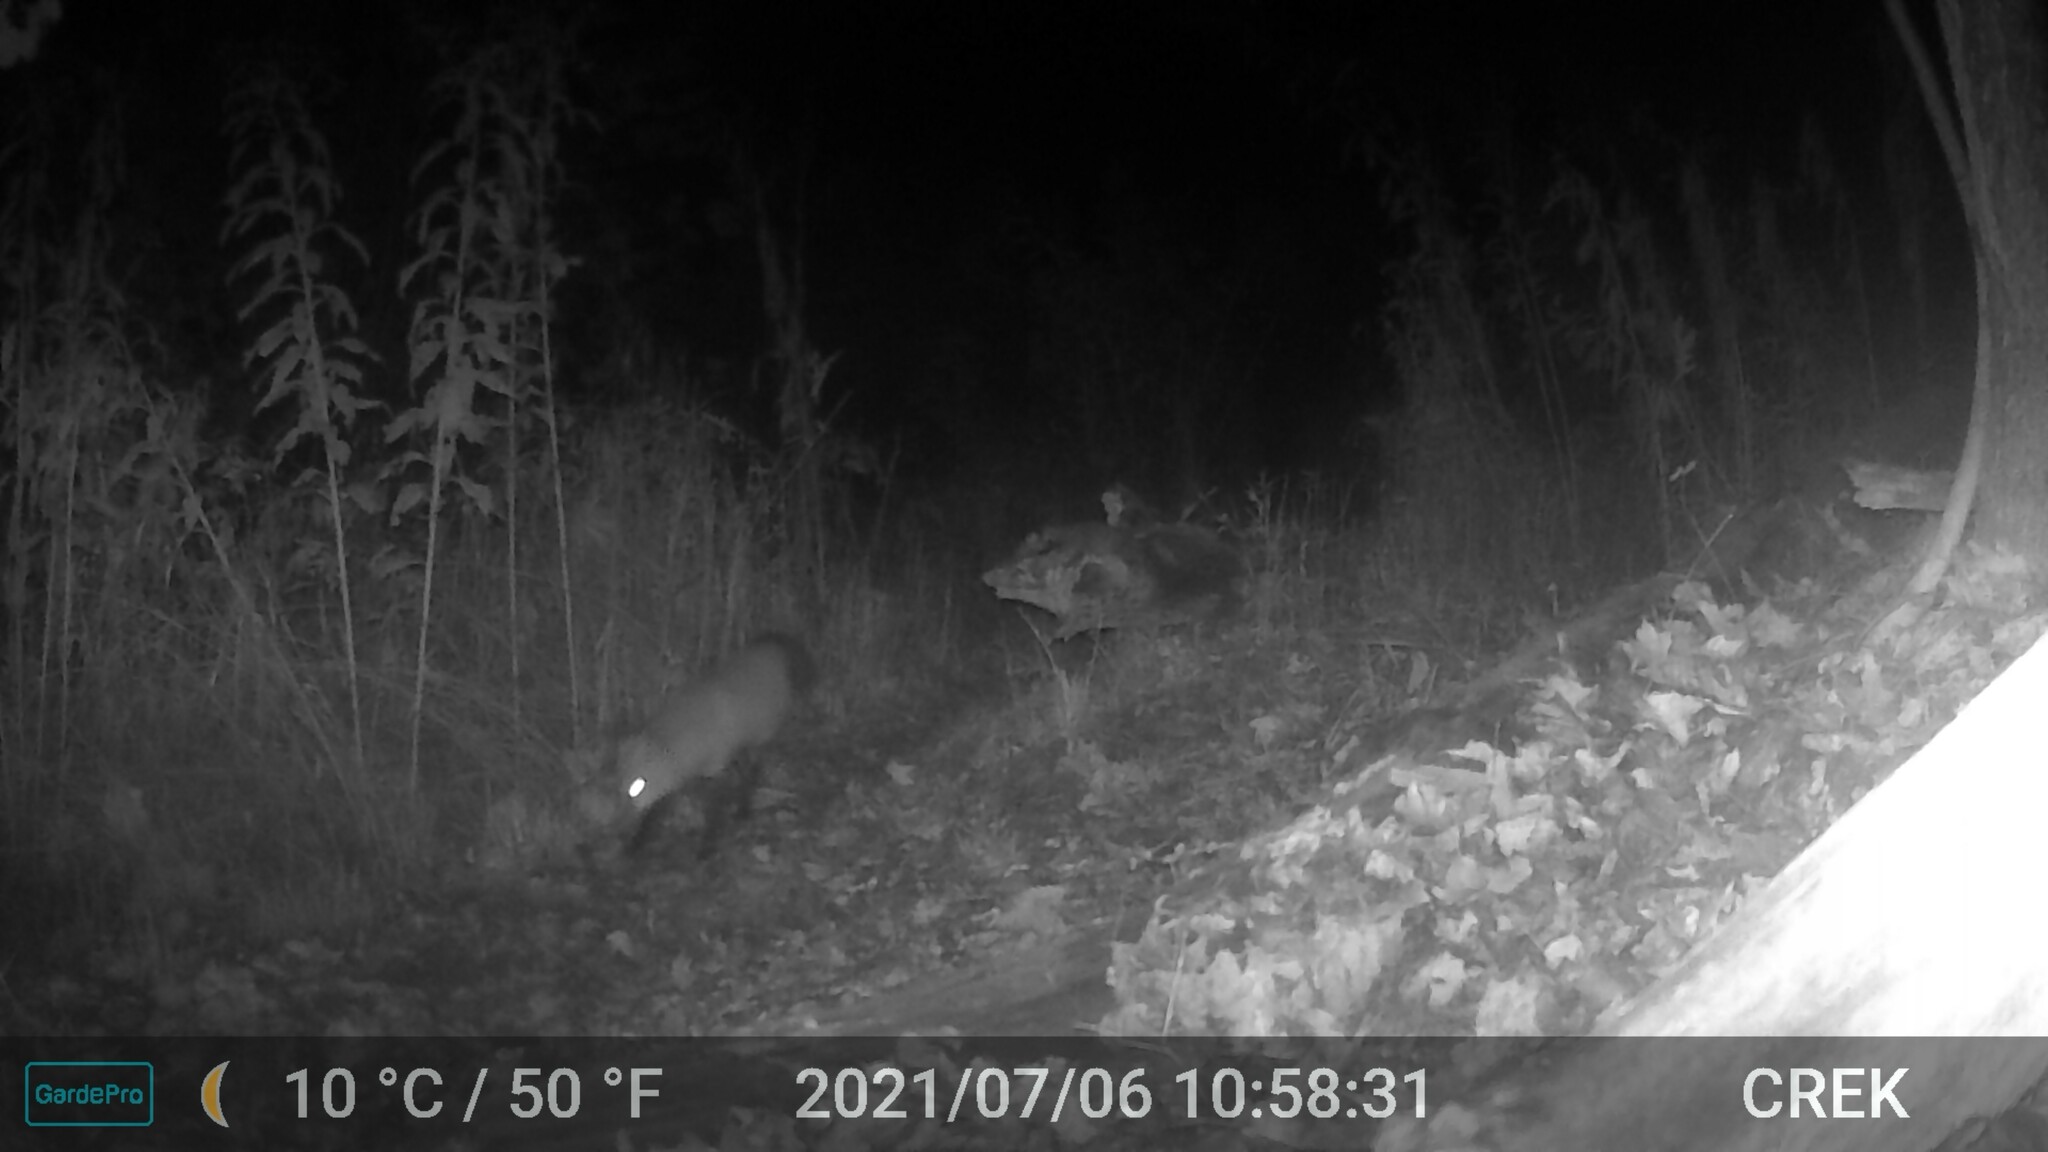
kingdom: Animalia
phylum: Chordata
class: Mammalia
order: Carnivora
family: Canidae
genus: Vulpes
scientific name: Vulpes vulpes
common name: Red fox
